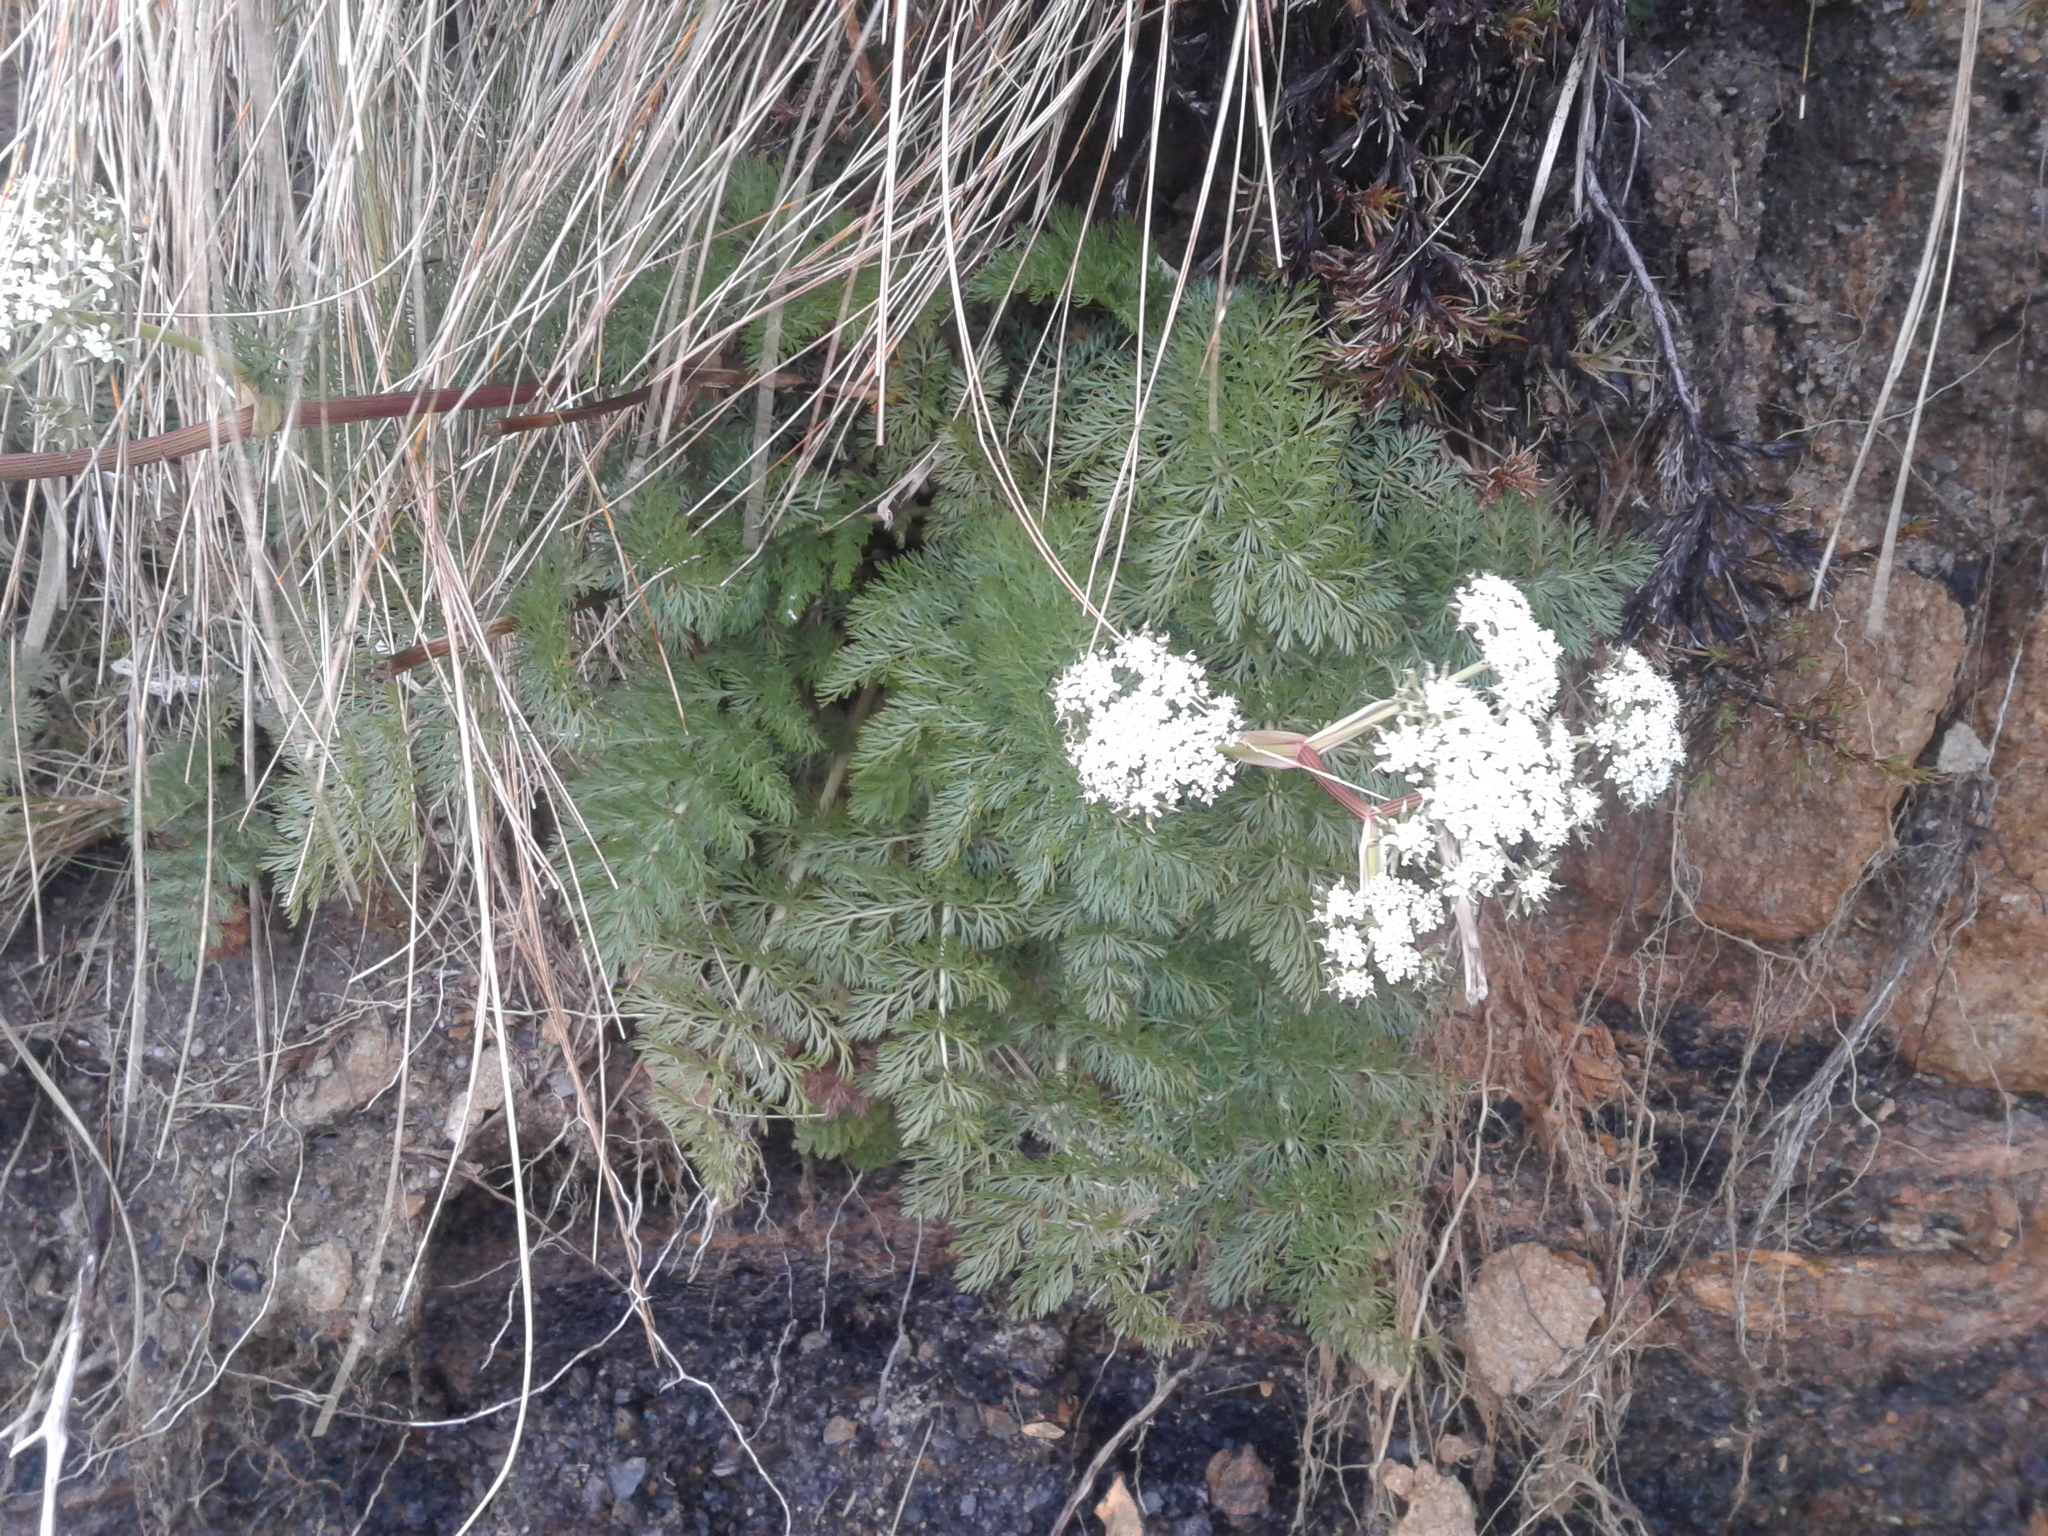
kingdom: Plantae
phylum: Tracheophyta
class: Magnoliopsida
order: Apiales
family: Apiaceae
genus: Anisotome
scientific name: Anisotome haastii
